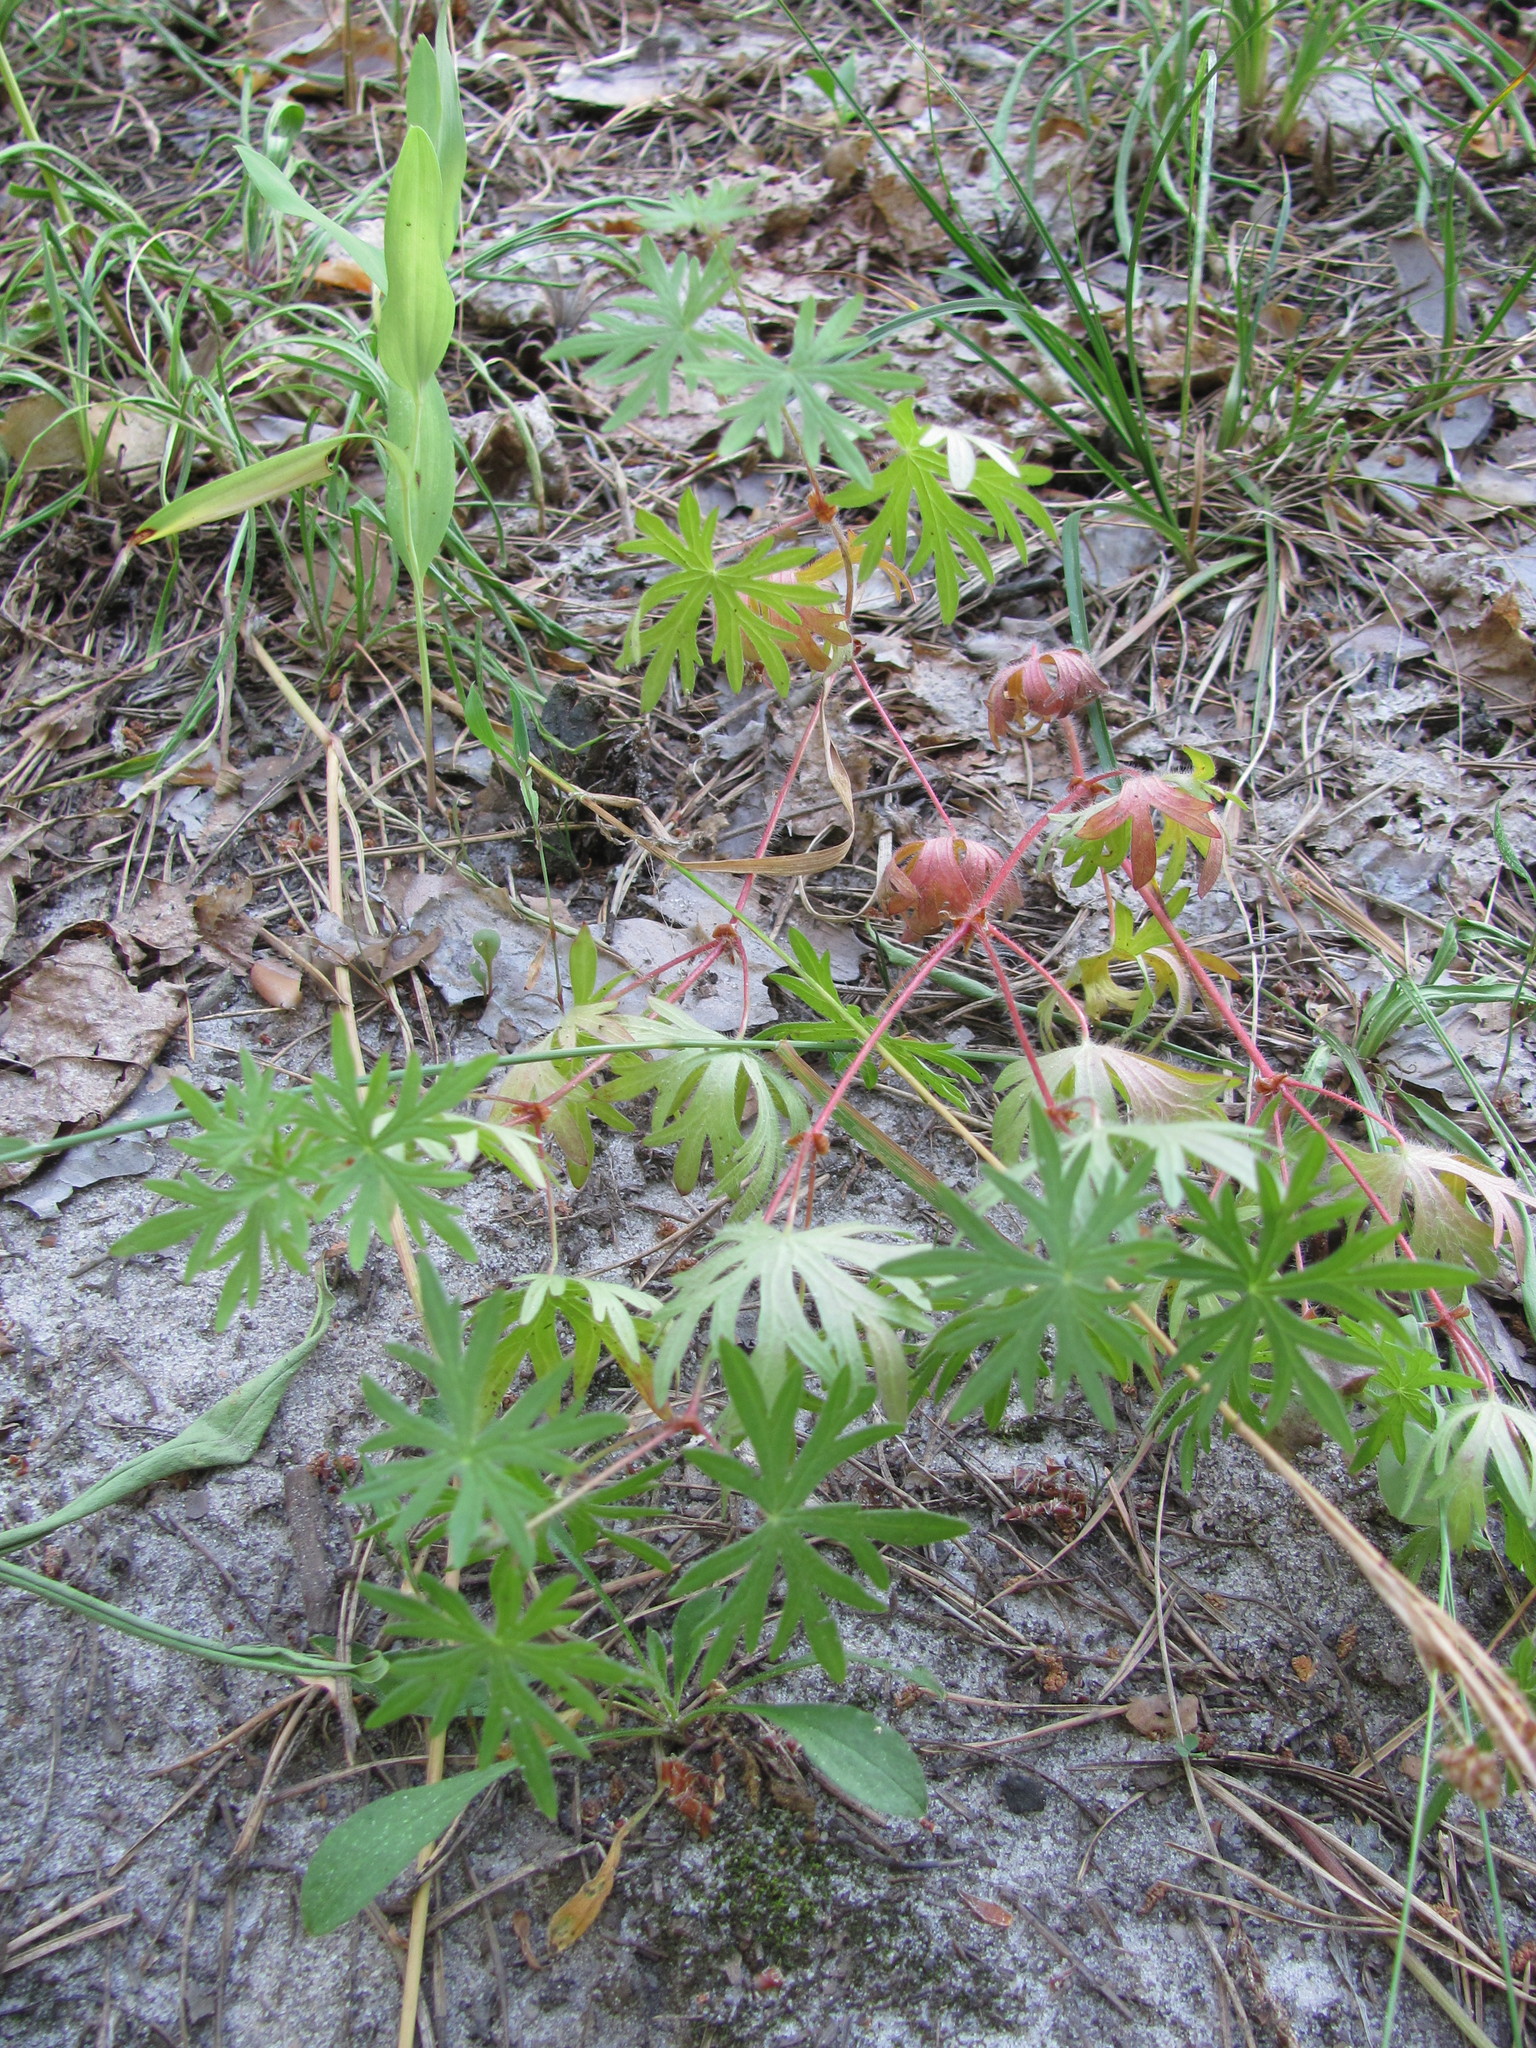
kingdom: Plantae
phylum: Tracheophyta
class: Magnoliopsida
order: Geraniales
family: Geraniaceae
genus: Geranium
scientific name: Geranium sanguineum
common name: Bloody crane's-bill
